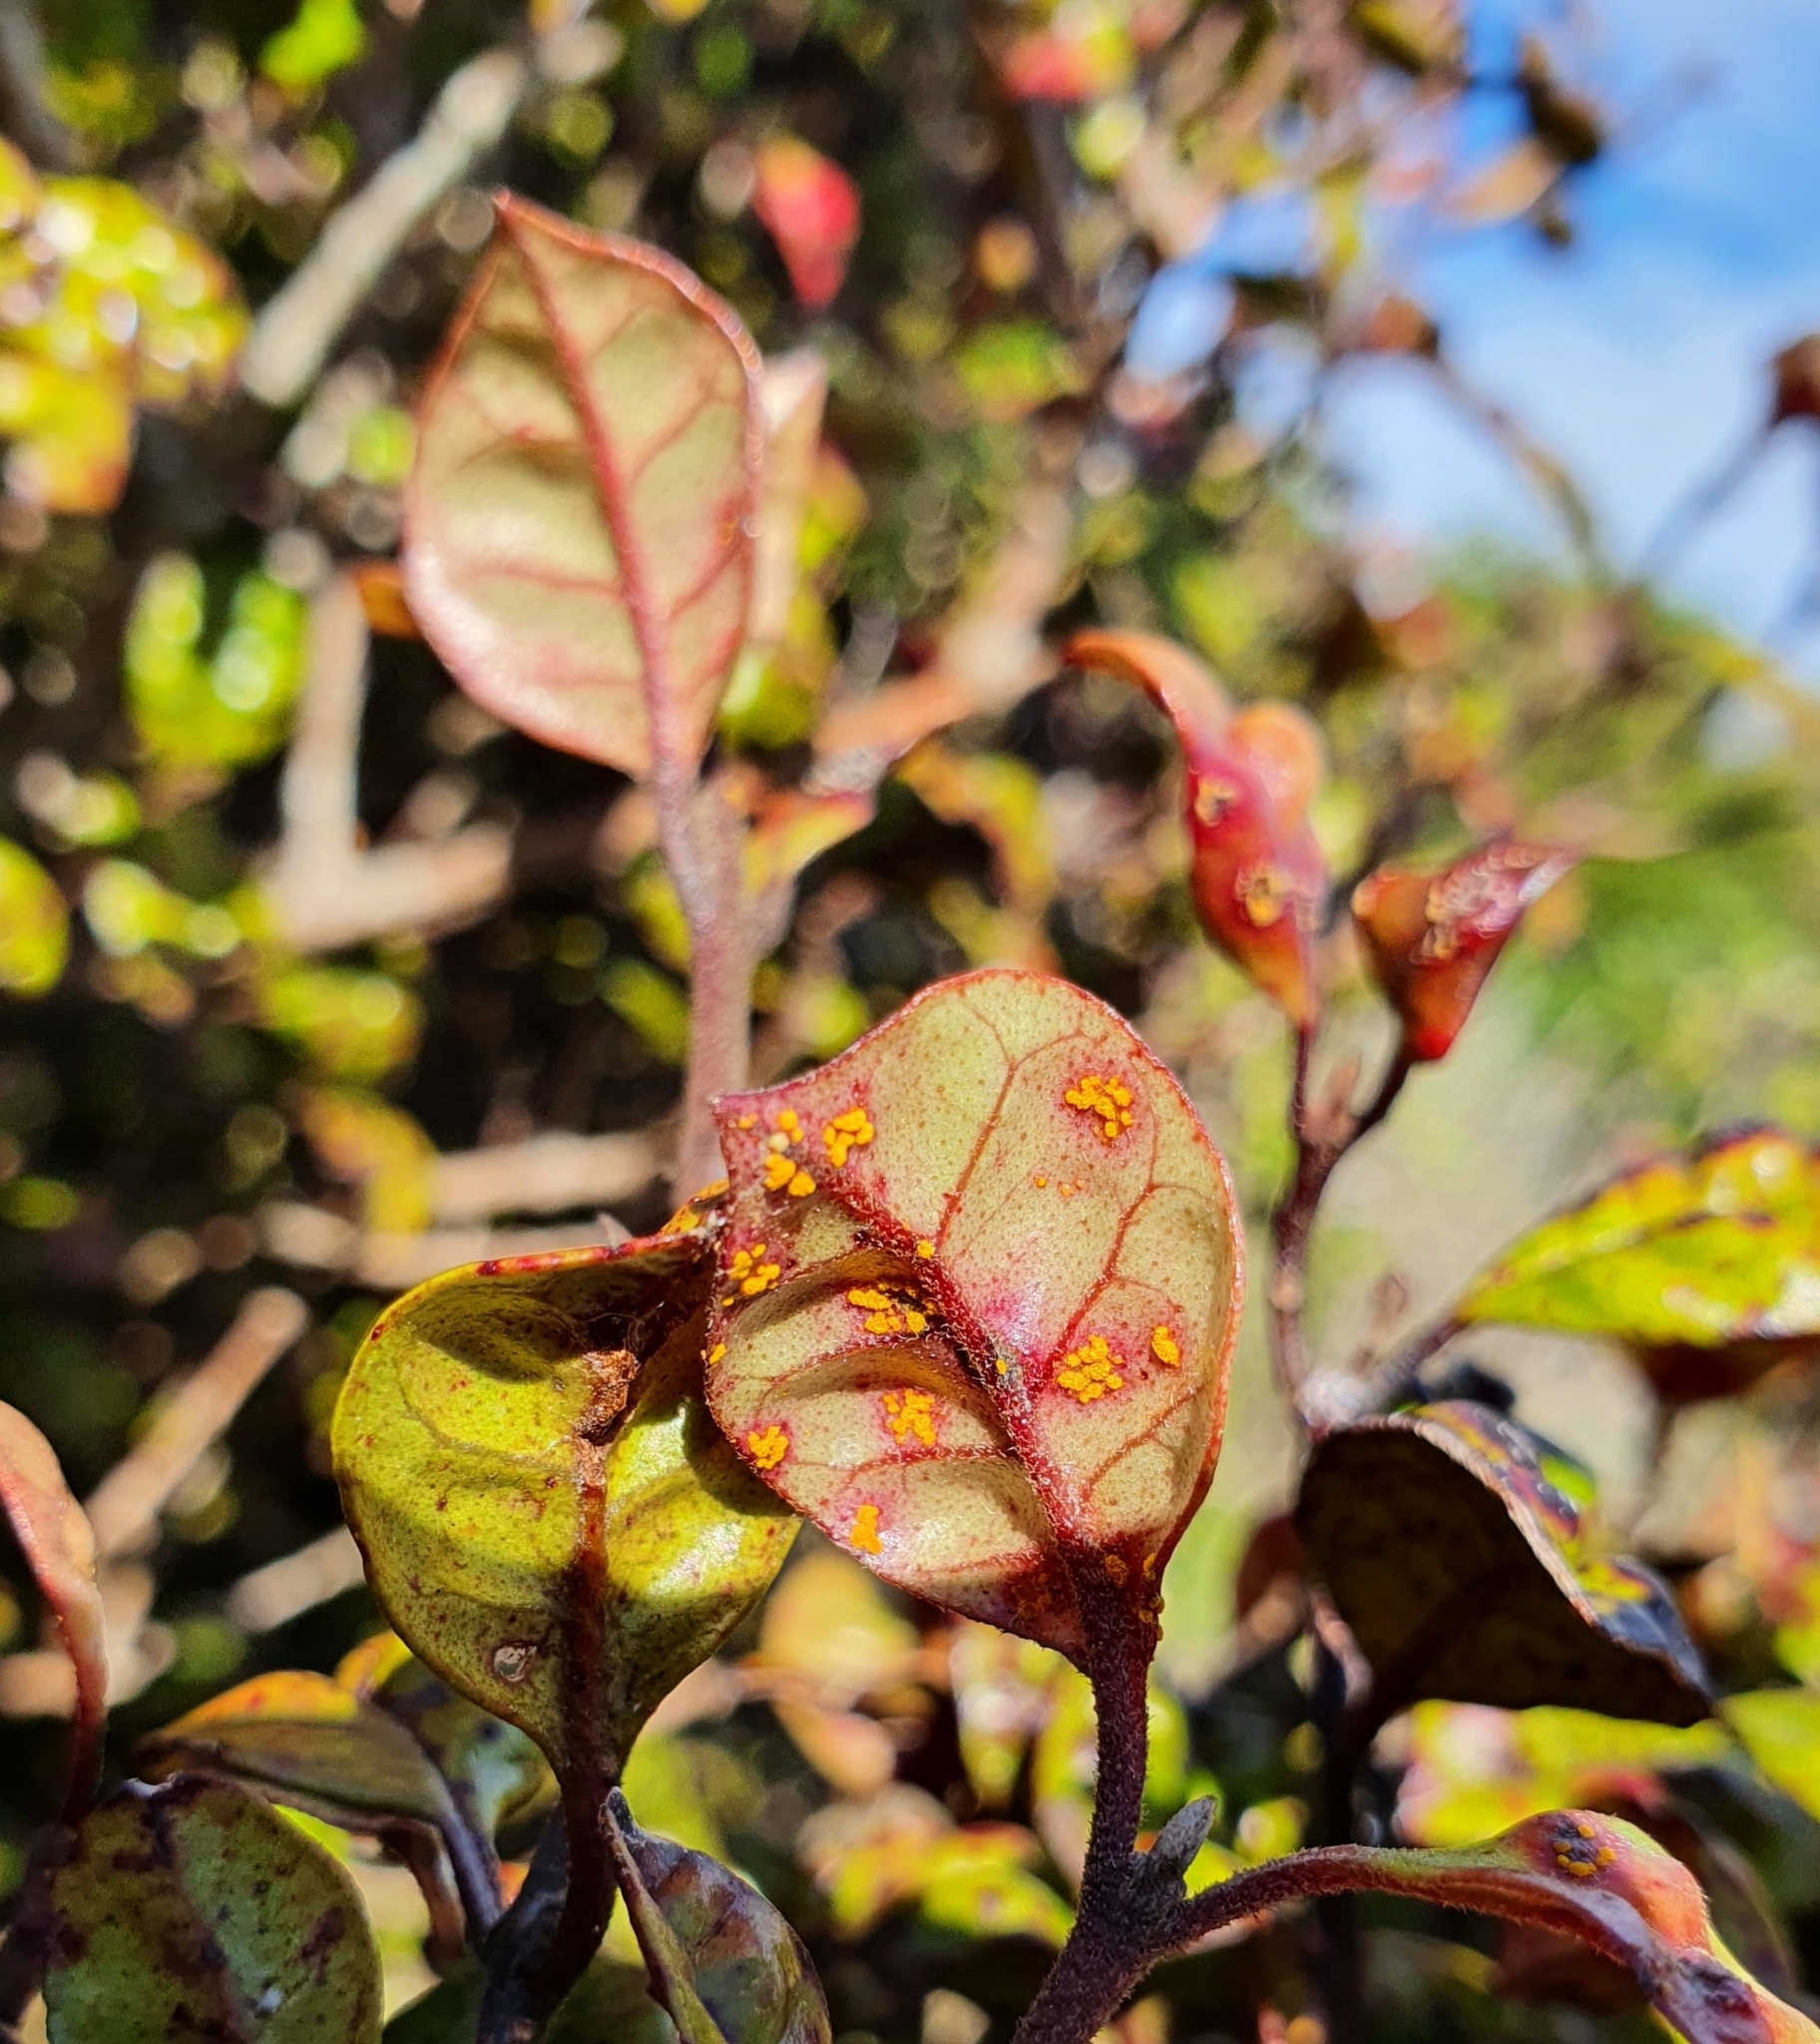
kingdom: Plantae
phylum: Tracheophyta
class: Magnoliopsida
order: Myrtales
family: Myrtaceae
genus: Lophomyrtus
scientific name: Lophomyrtus bullata
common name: Rama rama
